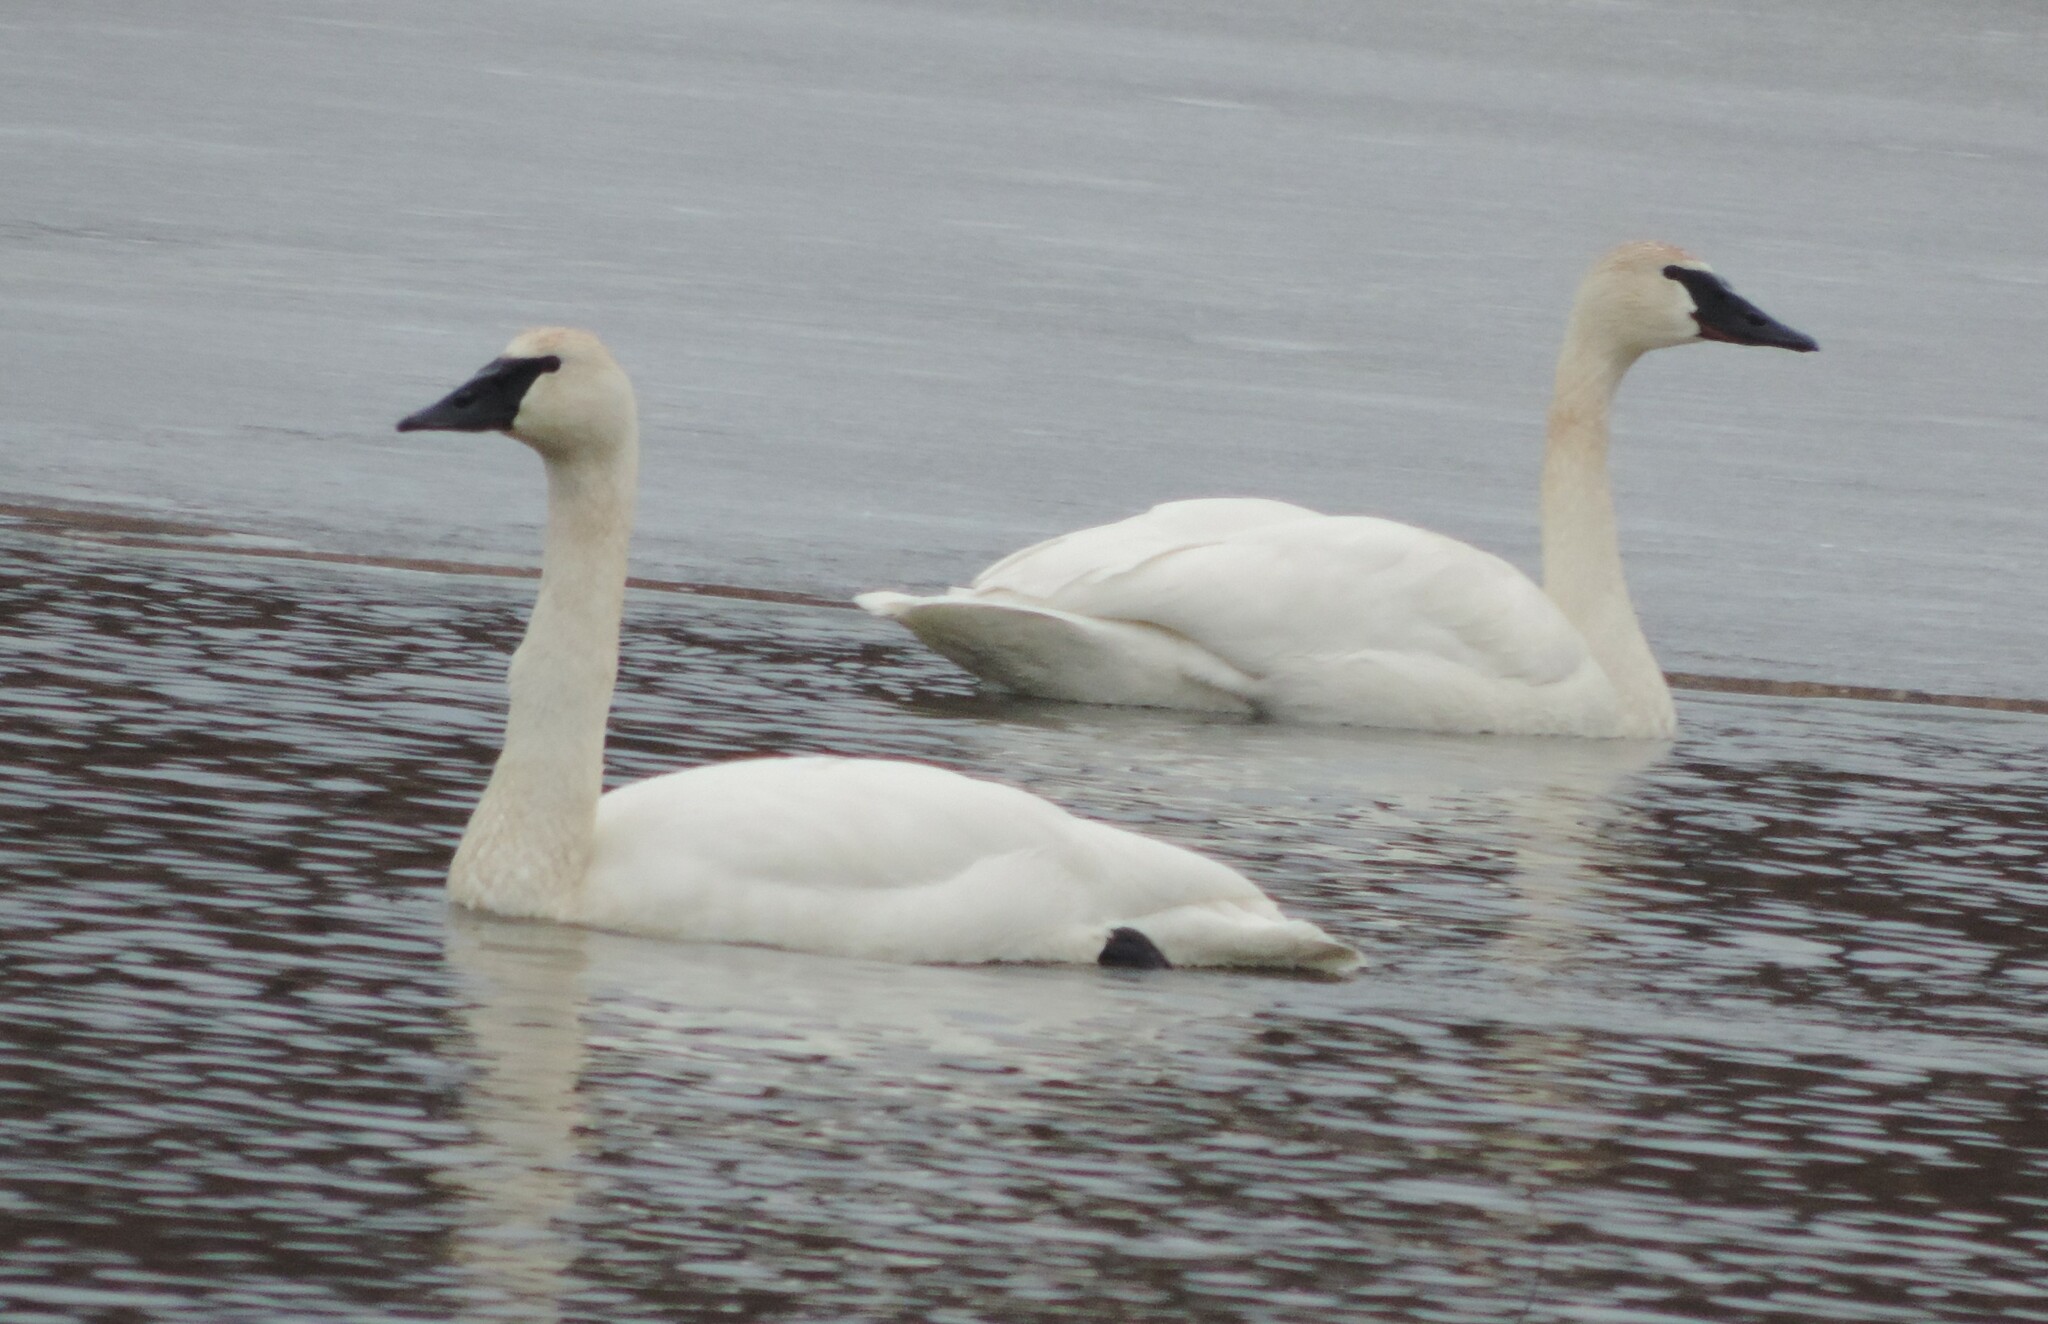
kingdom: Animalia
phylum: Chordata
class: Aves
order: Anseriformes
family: Anatidae
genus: Cygnus
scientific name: Cygnus buccinator
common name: Trumpeter swan
